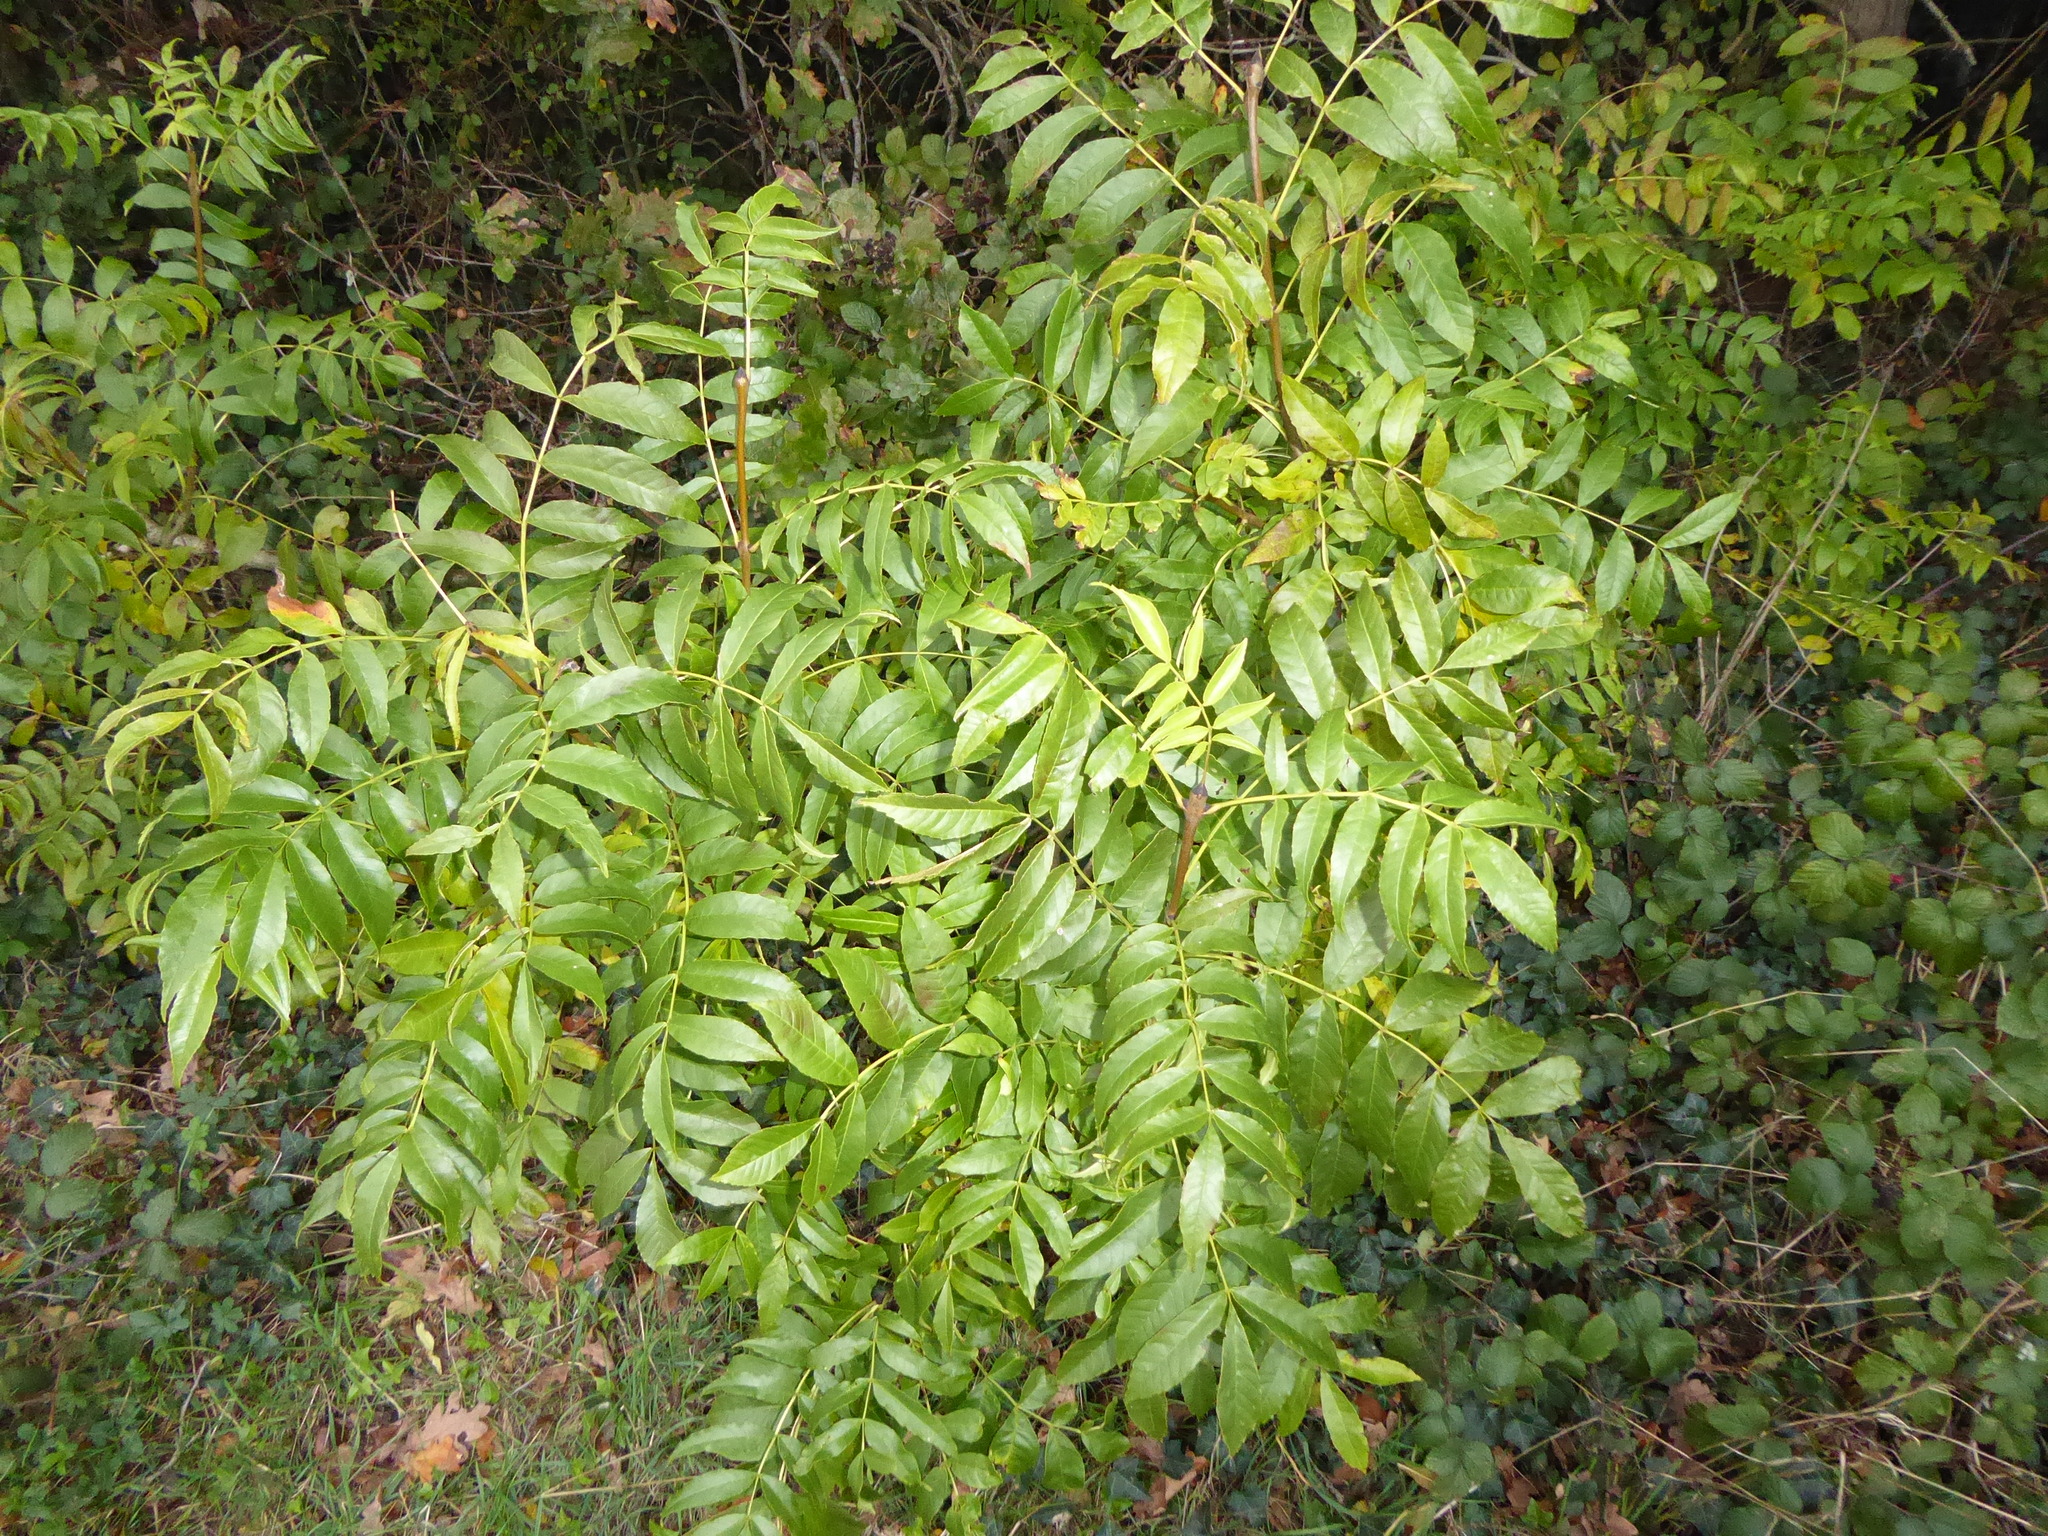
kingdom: Plantae
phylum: Tracheophyta
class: Magnoliopsida
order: Lamiales
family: Oleaceae
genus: Fraxinus
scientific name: Fraxinus excelsior
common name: European ash
